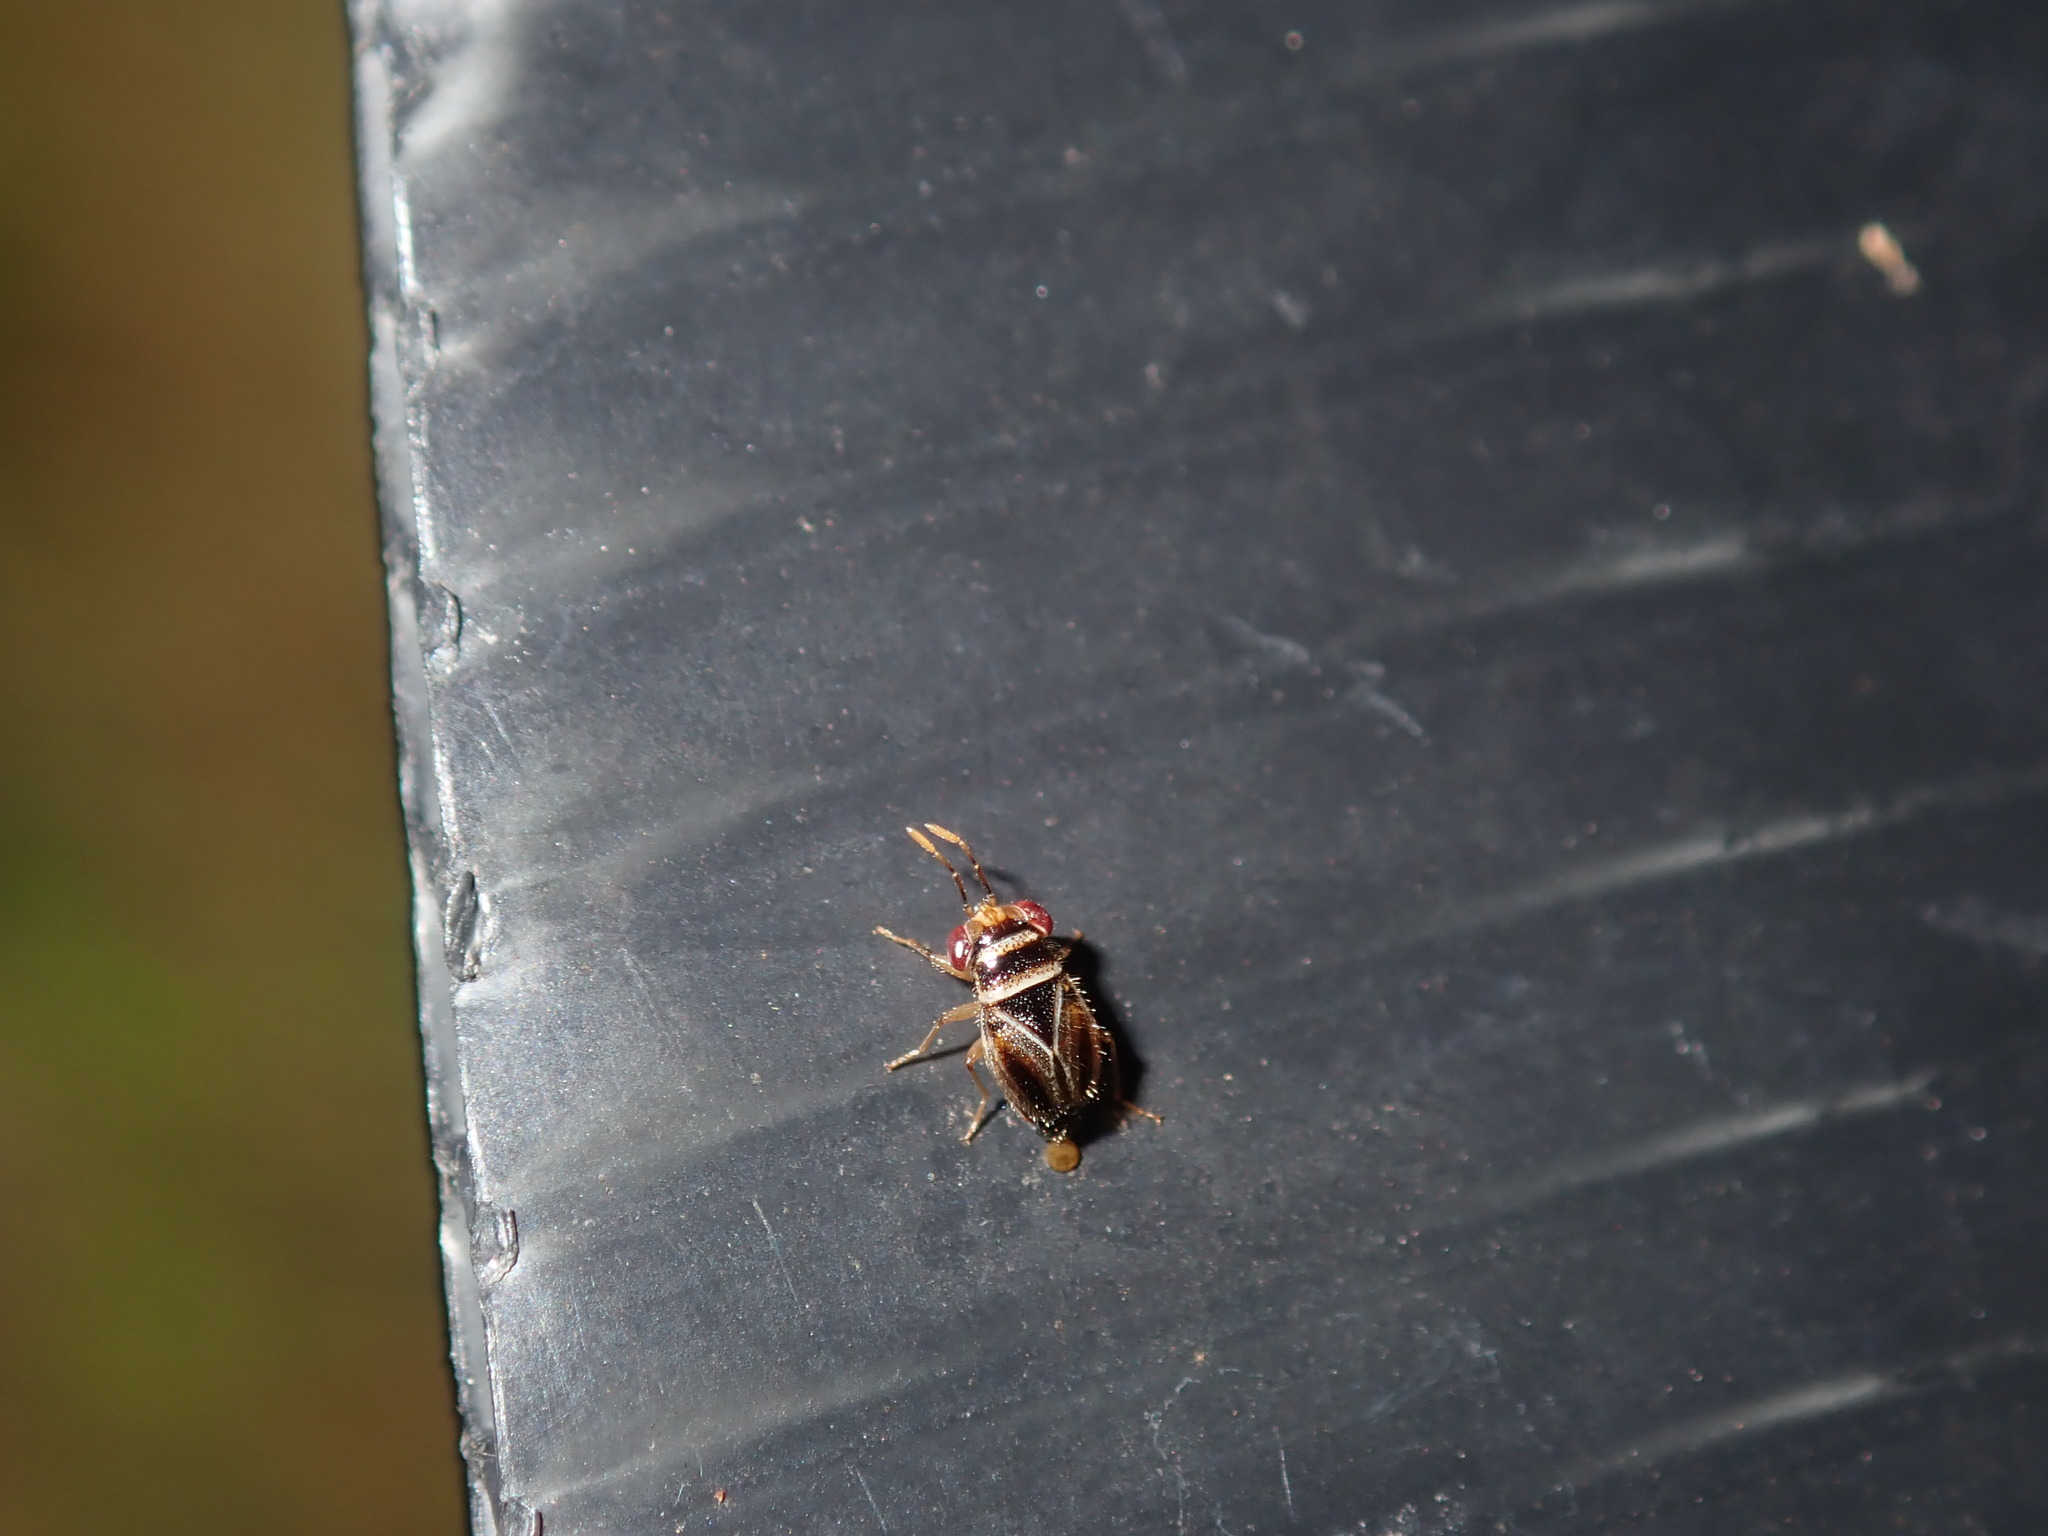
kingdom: Animalia
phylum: Arthropoda
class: Insecta
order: Hemiptera
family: Geocoridae
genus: Umbrageocoris
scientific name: Umbrageocoris woodwardi
